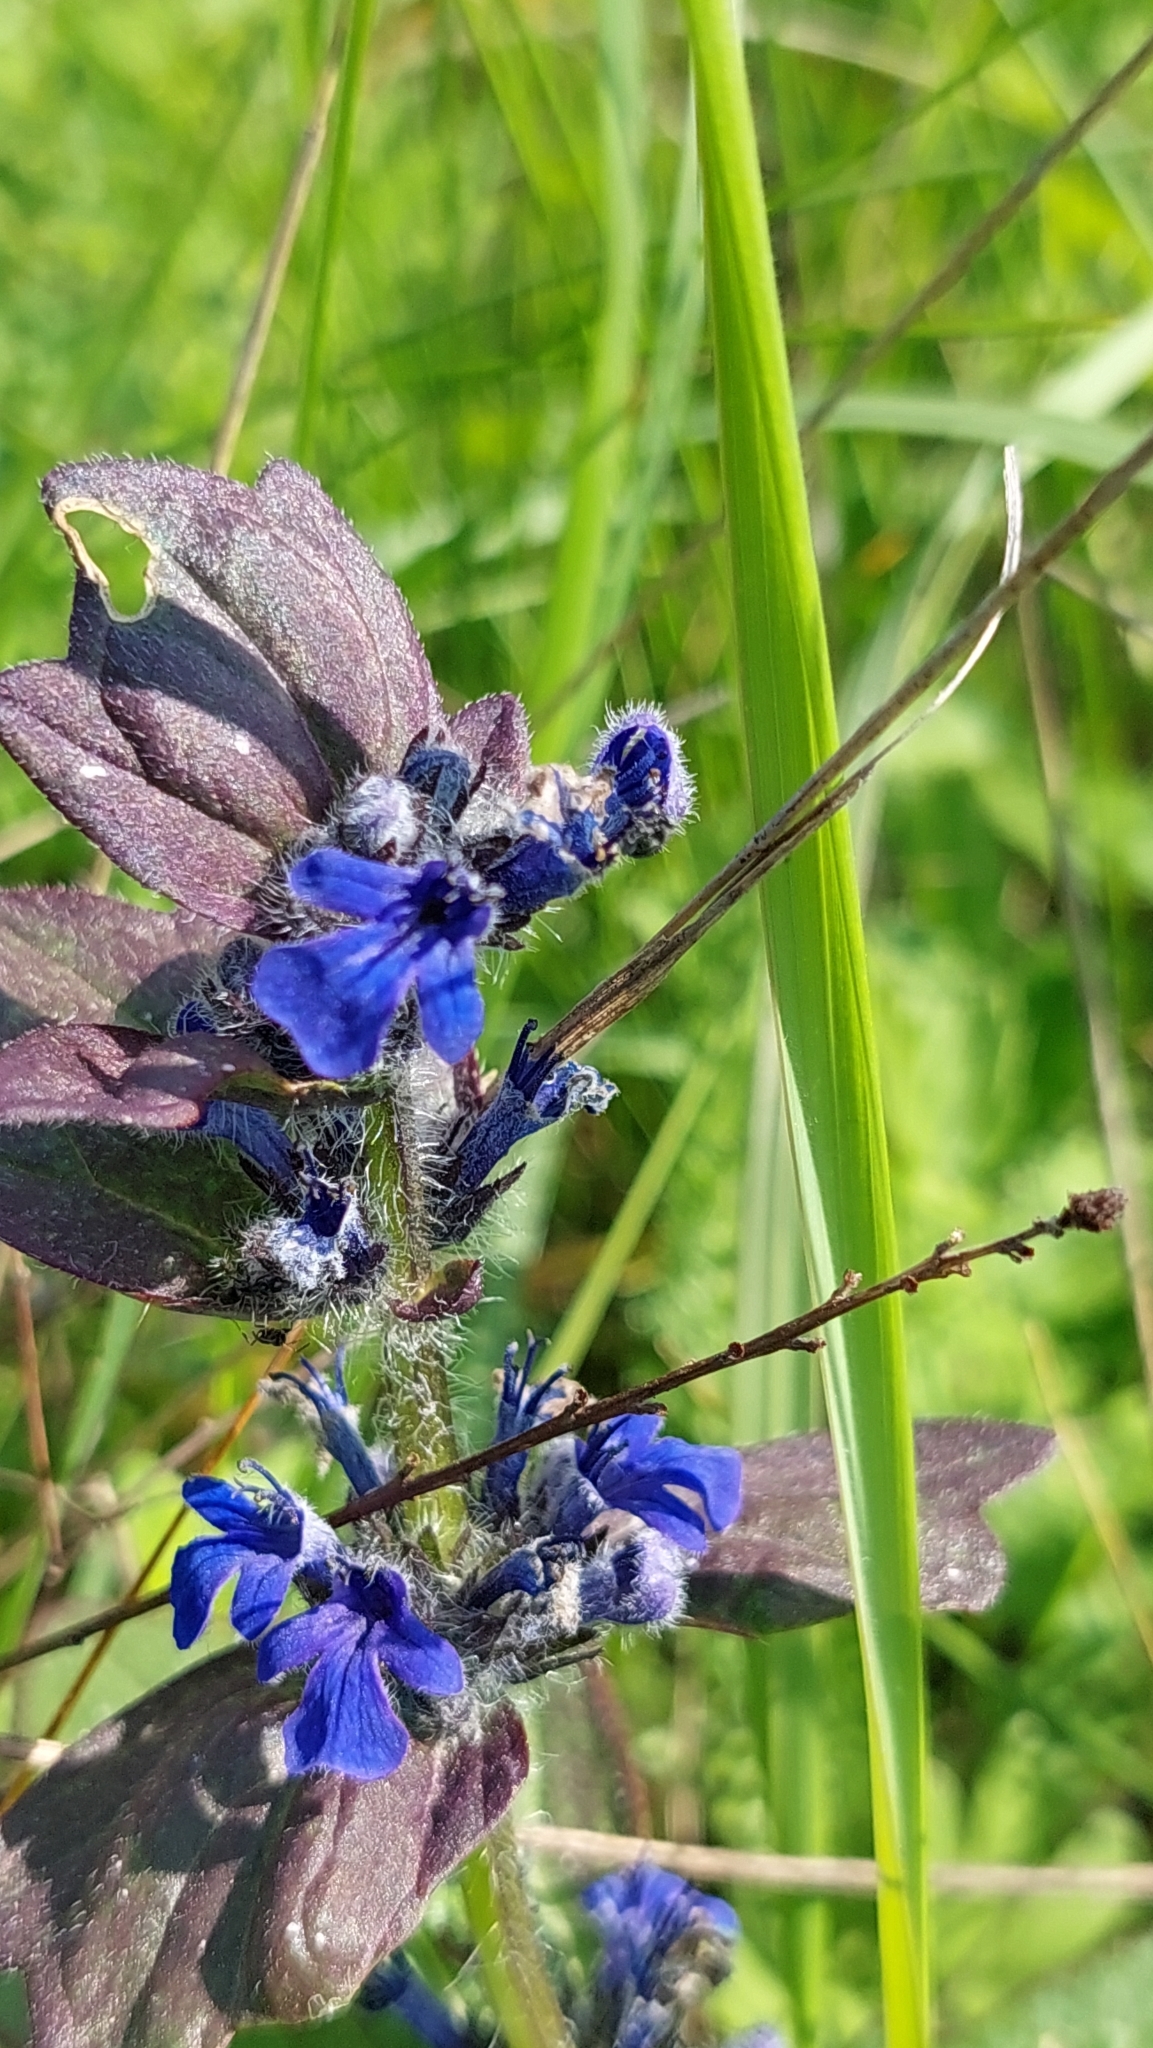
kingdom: Plantae
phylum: Tracheophyta
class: Magnoliopsida
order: Lamiales
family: Lamiaceae
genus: Ajuga
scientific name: Ajuga genevensis
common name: Blue bugle
